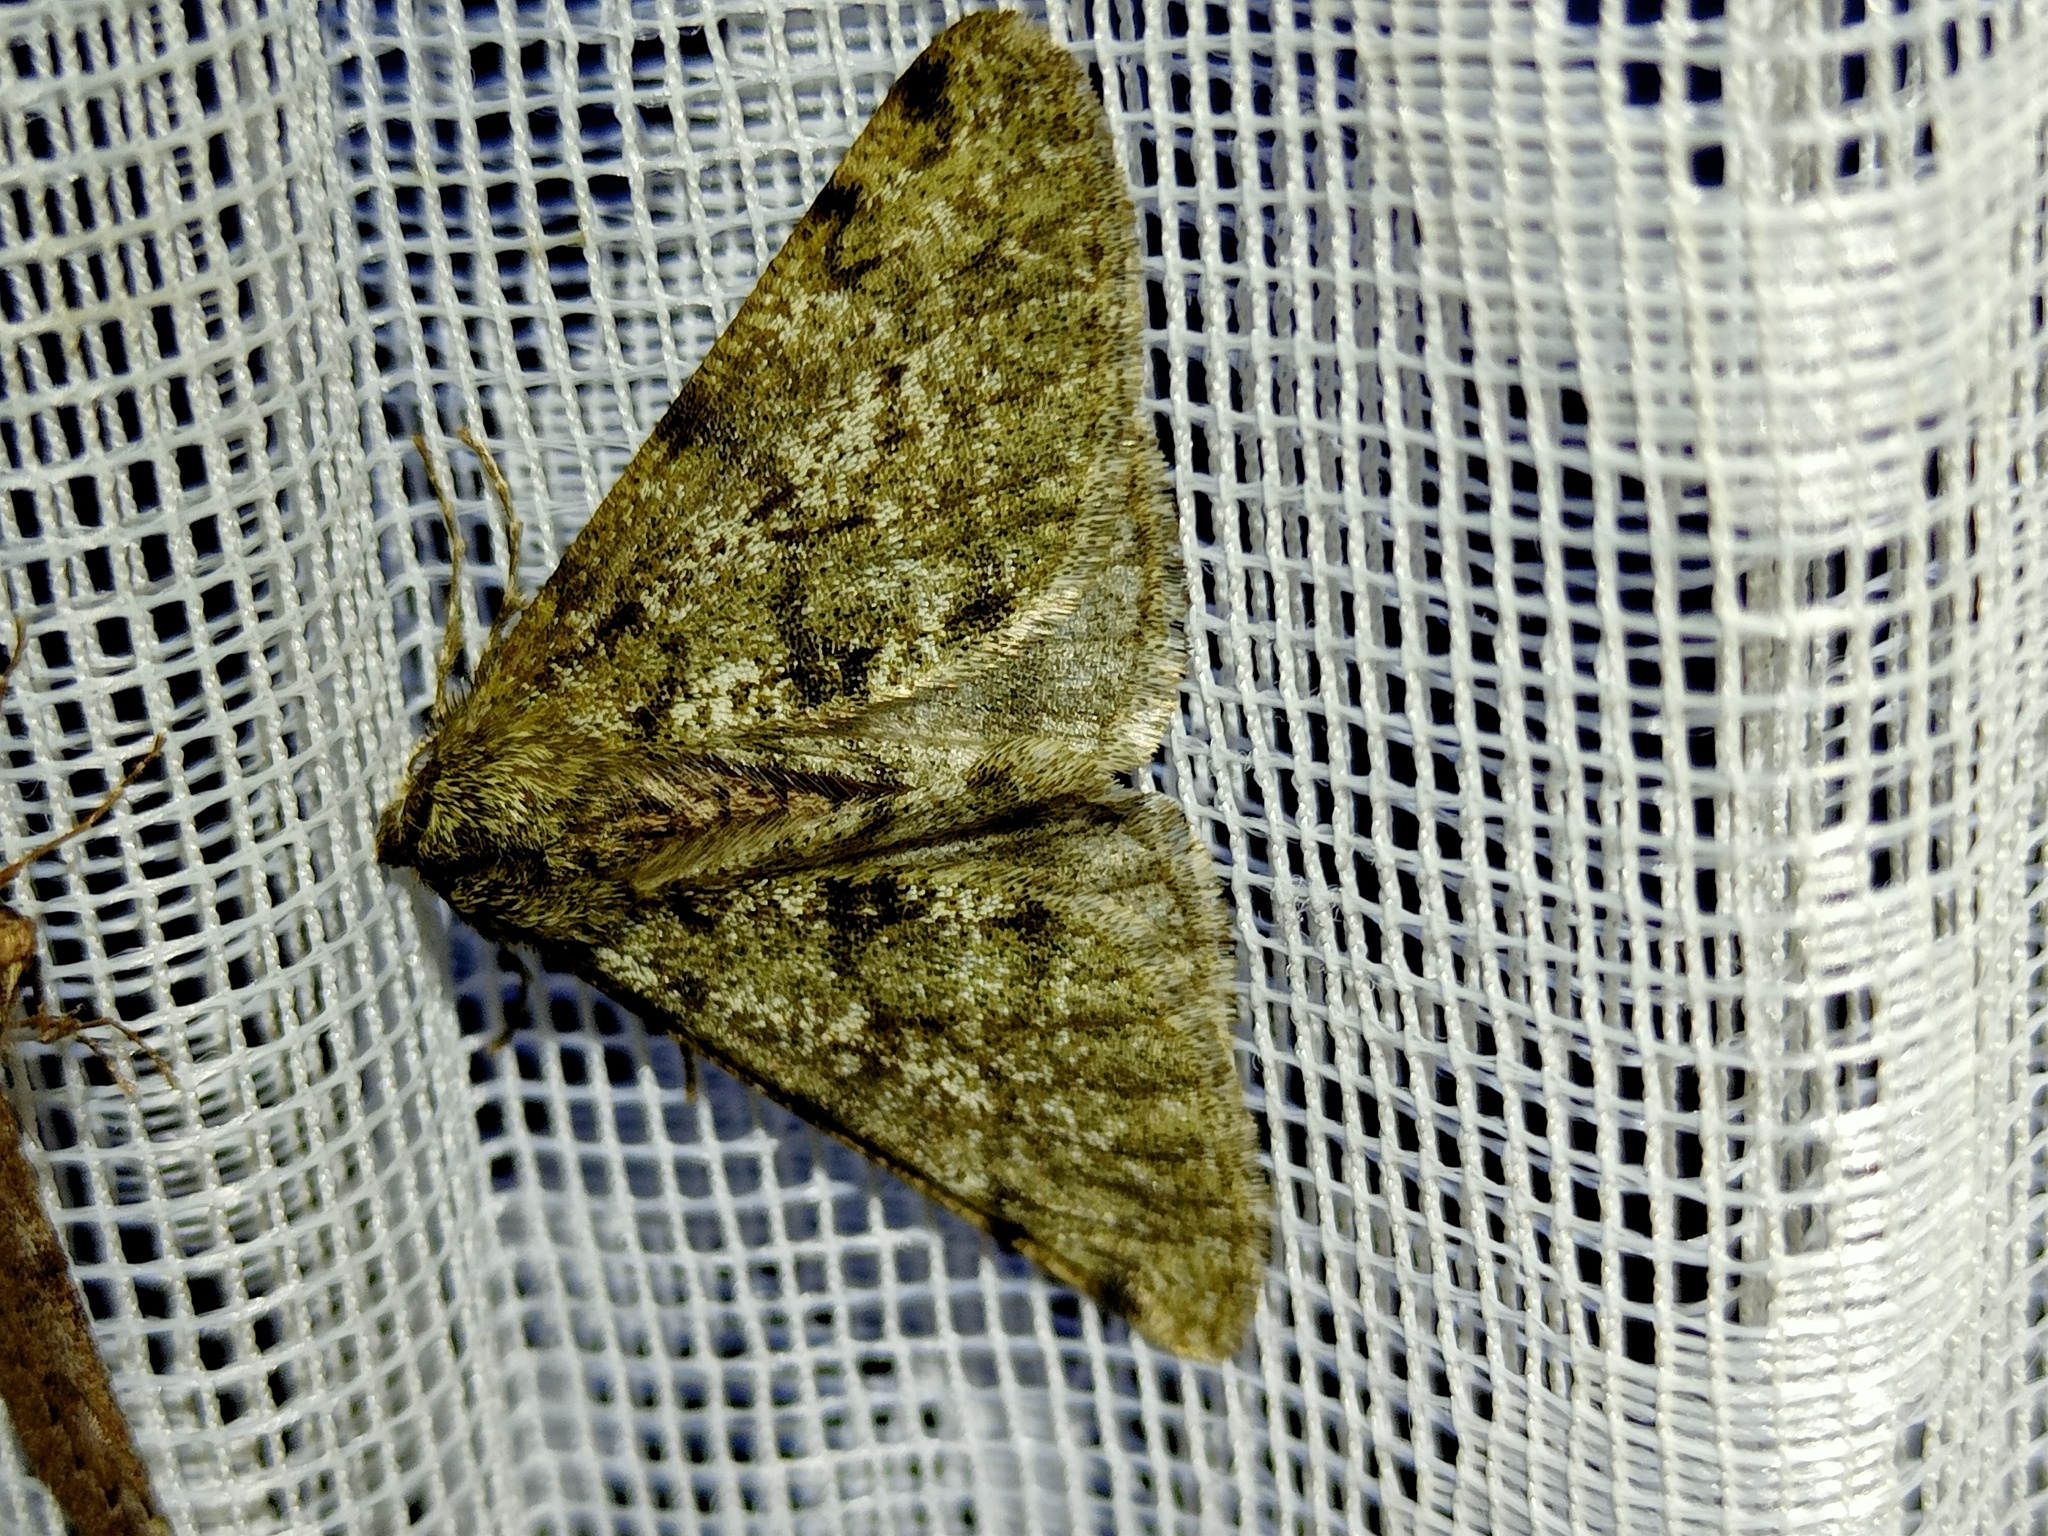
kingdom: Animalia
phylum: Arthropoda
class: Insecta
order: Lepidoptera
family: Geometridae
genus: Phigalia
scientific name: Phigalia pilosaria
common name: Pale brindled beauty
